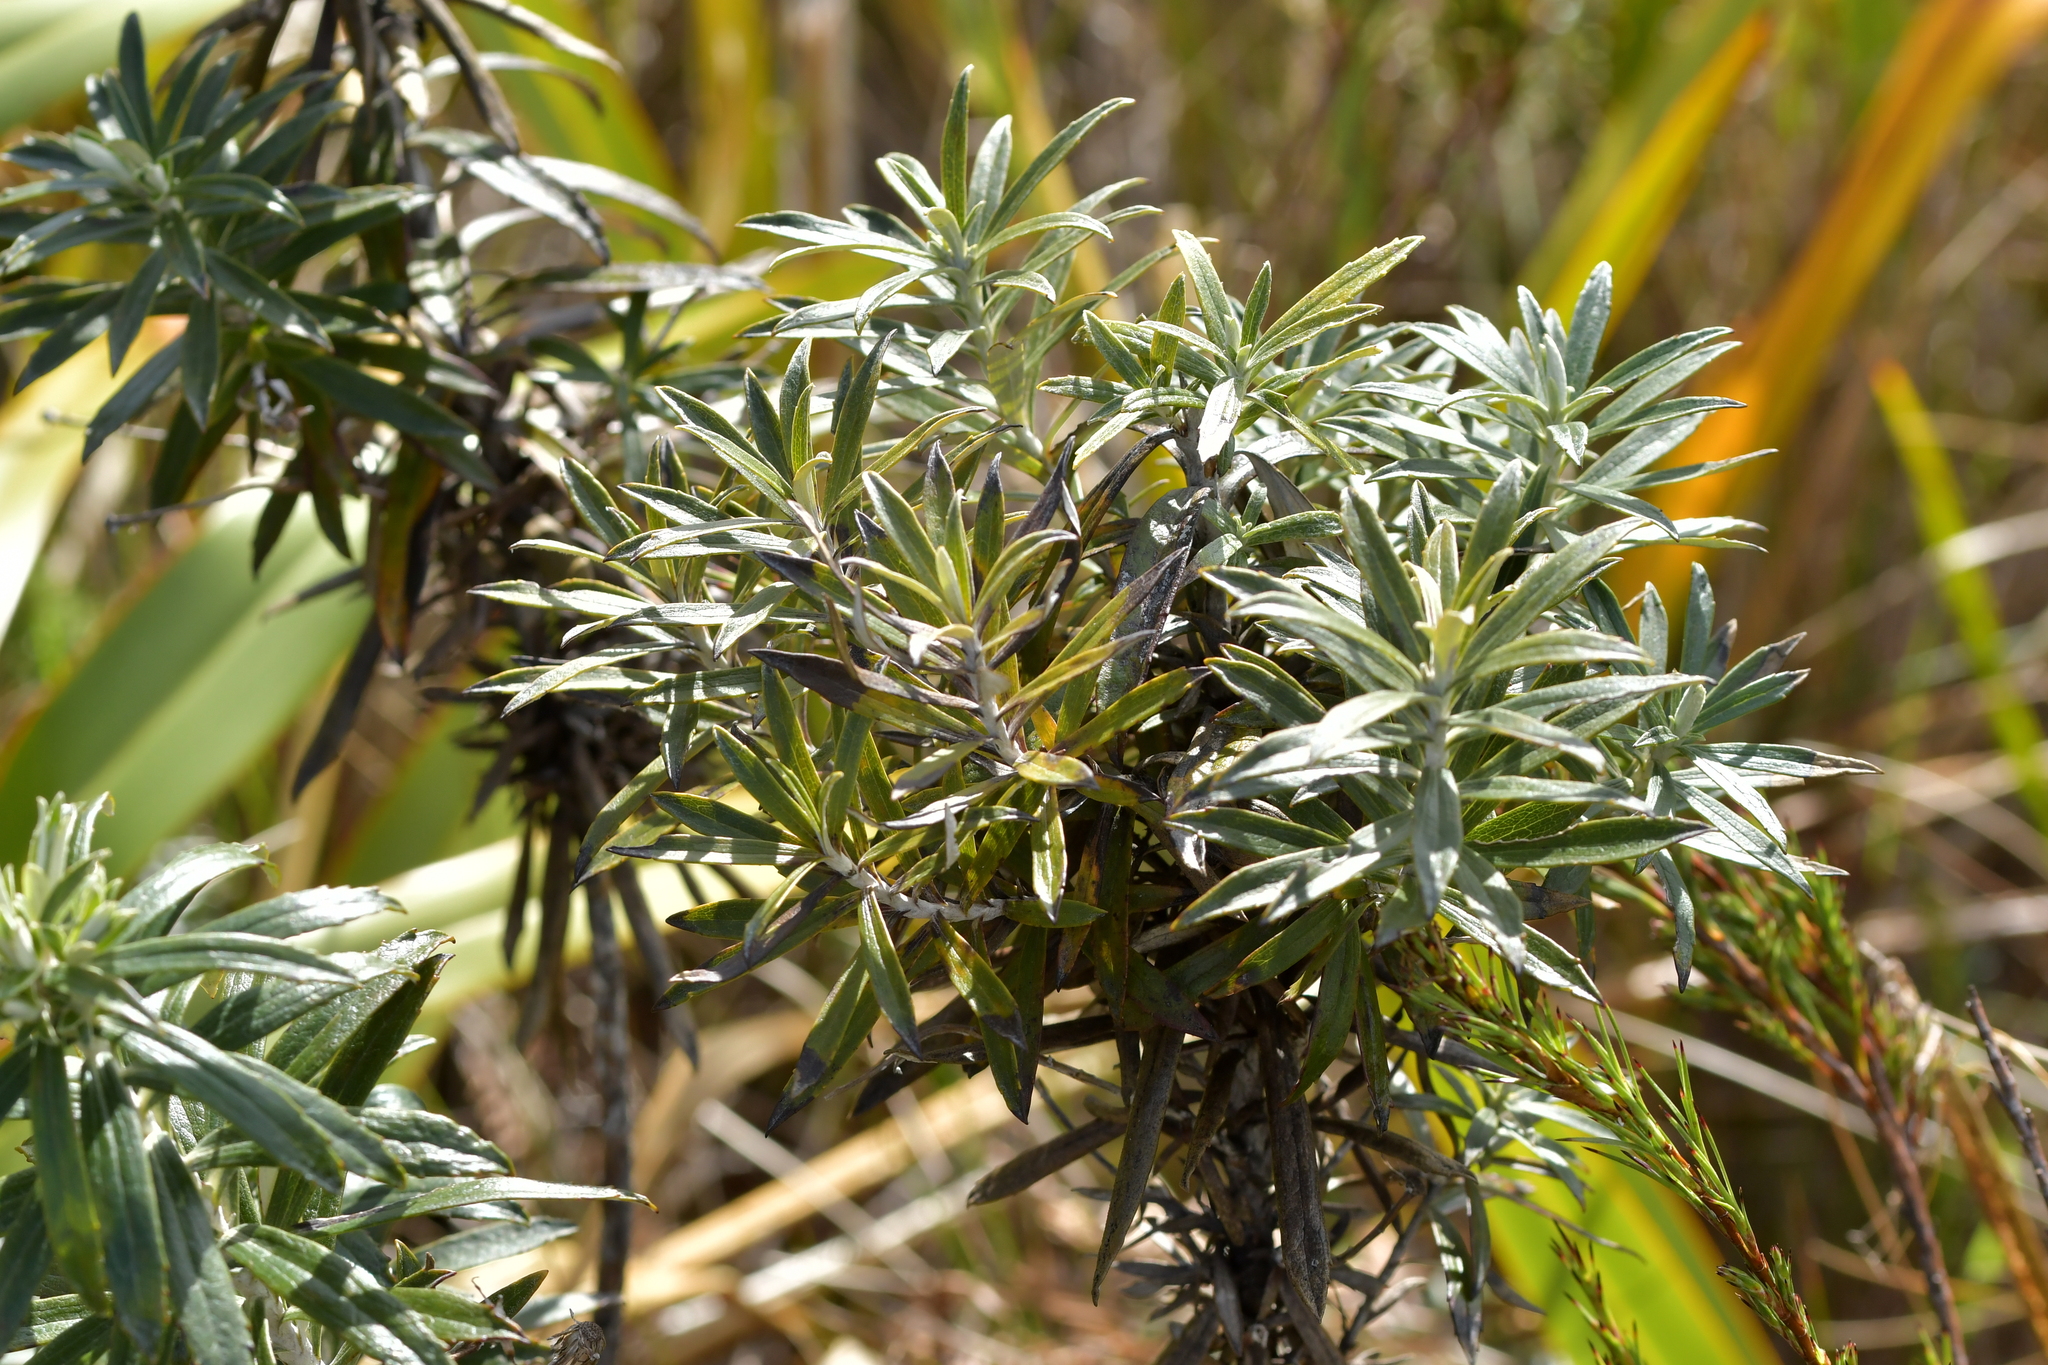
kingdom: Plantae
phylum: Tracheophyta
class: Magnoliopsida
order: Asterales
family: Asteraceae
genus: Macrolearia
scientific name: Macrolearia semidentata
